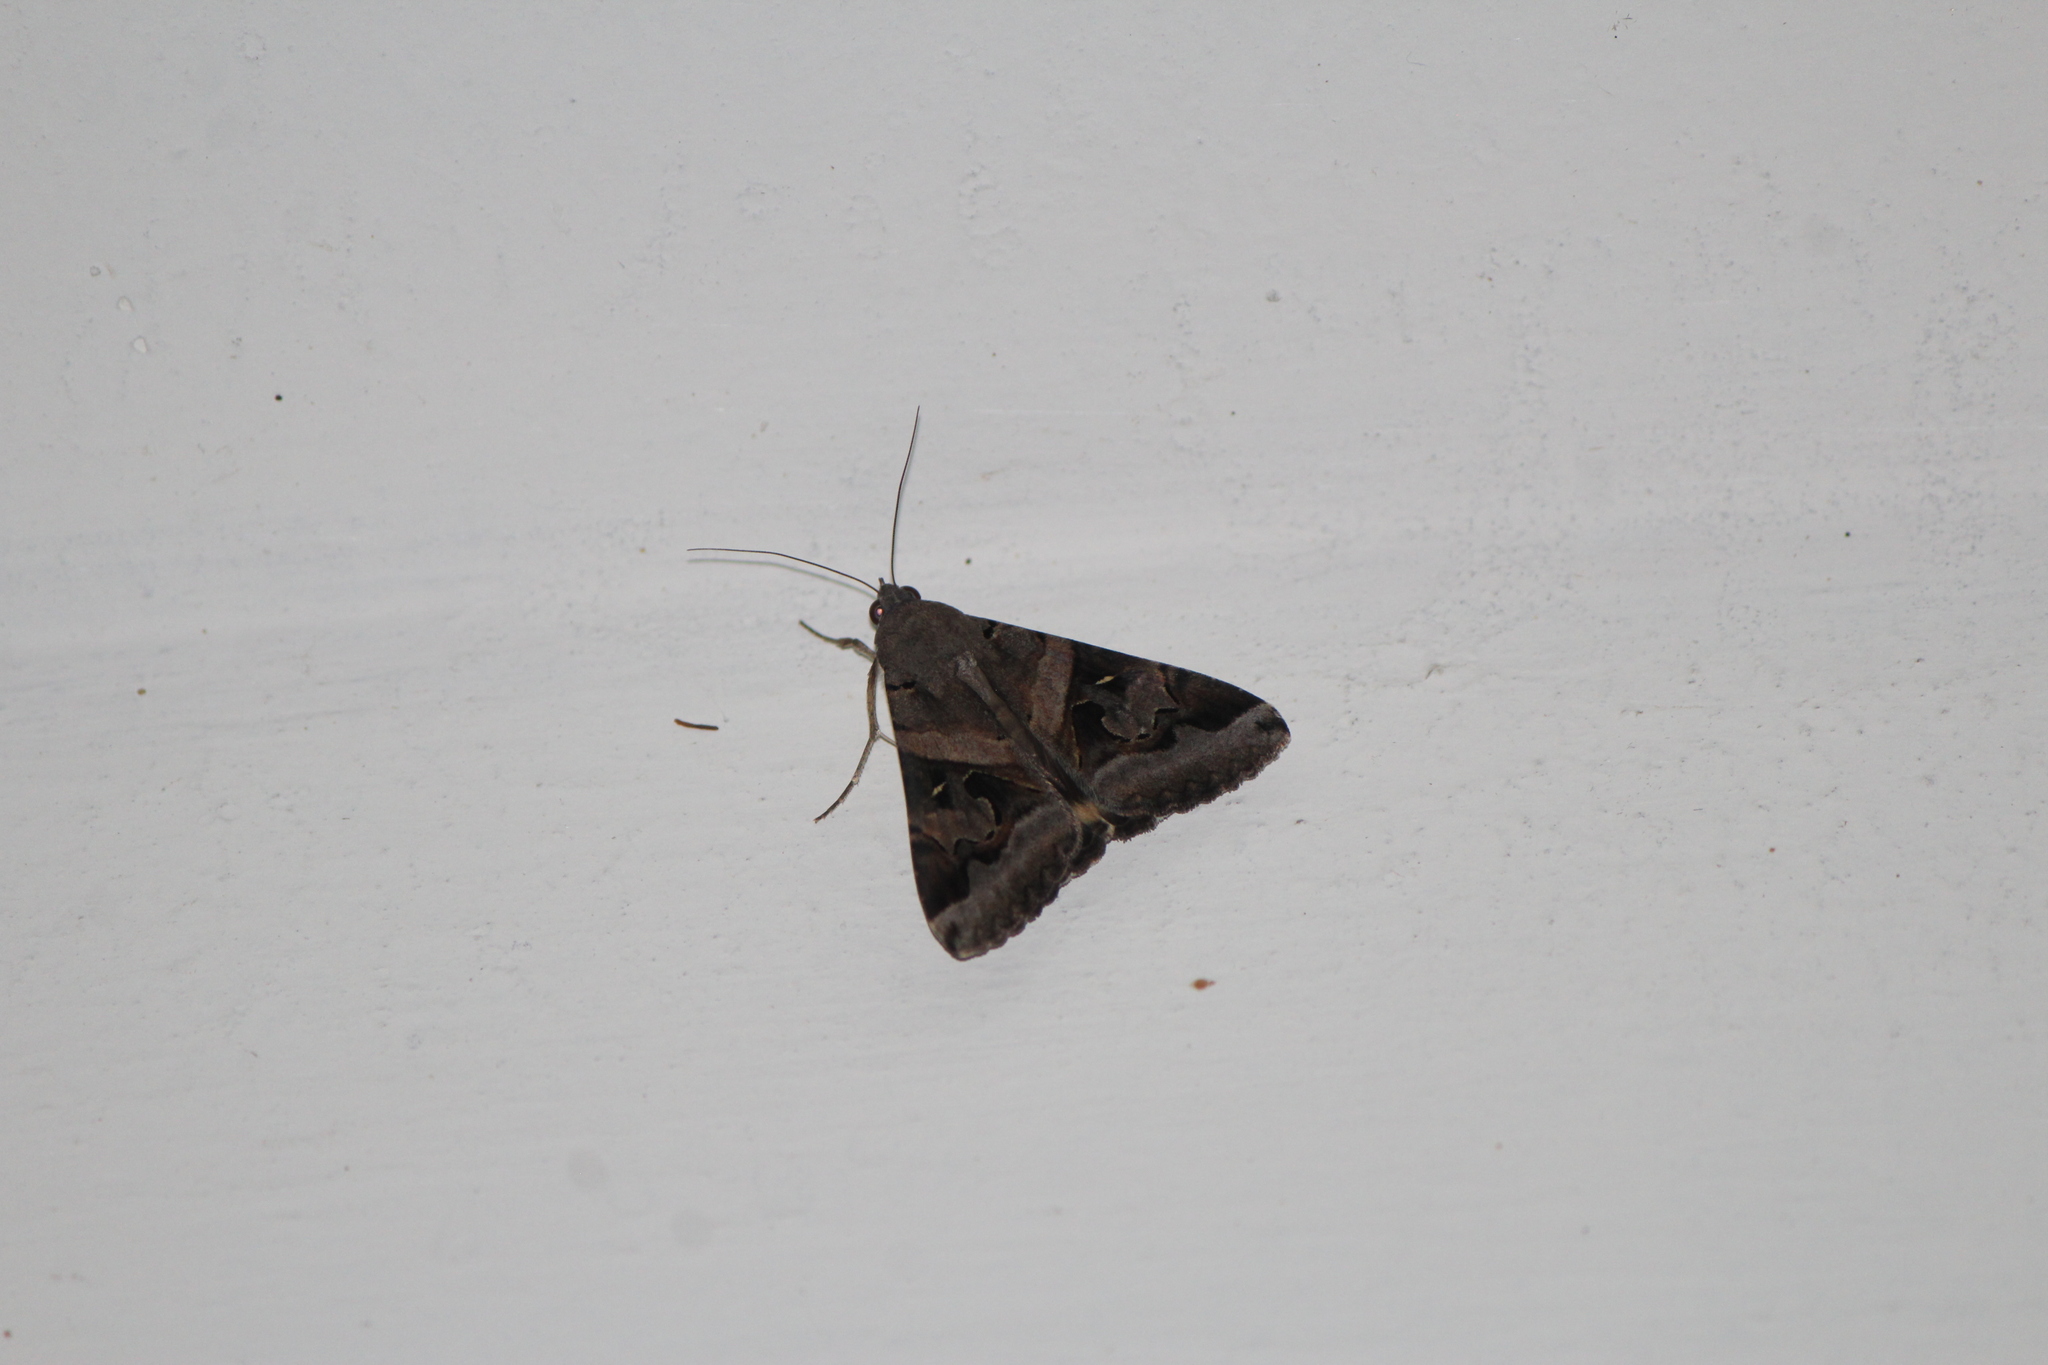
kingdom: Animalia
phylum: Arthropoda
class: Insecta
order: Lepidoptera
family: Erebidae
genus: Melipotis
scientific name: Melipotis indomita
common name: Moth
